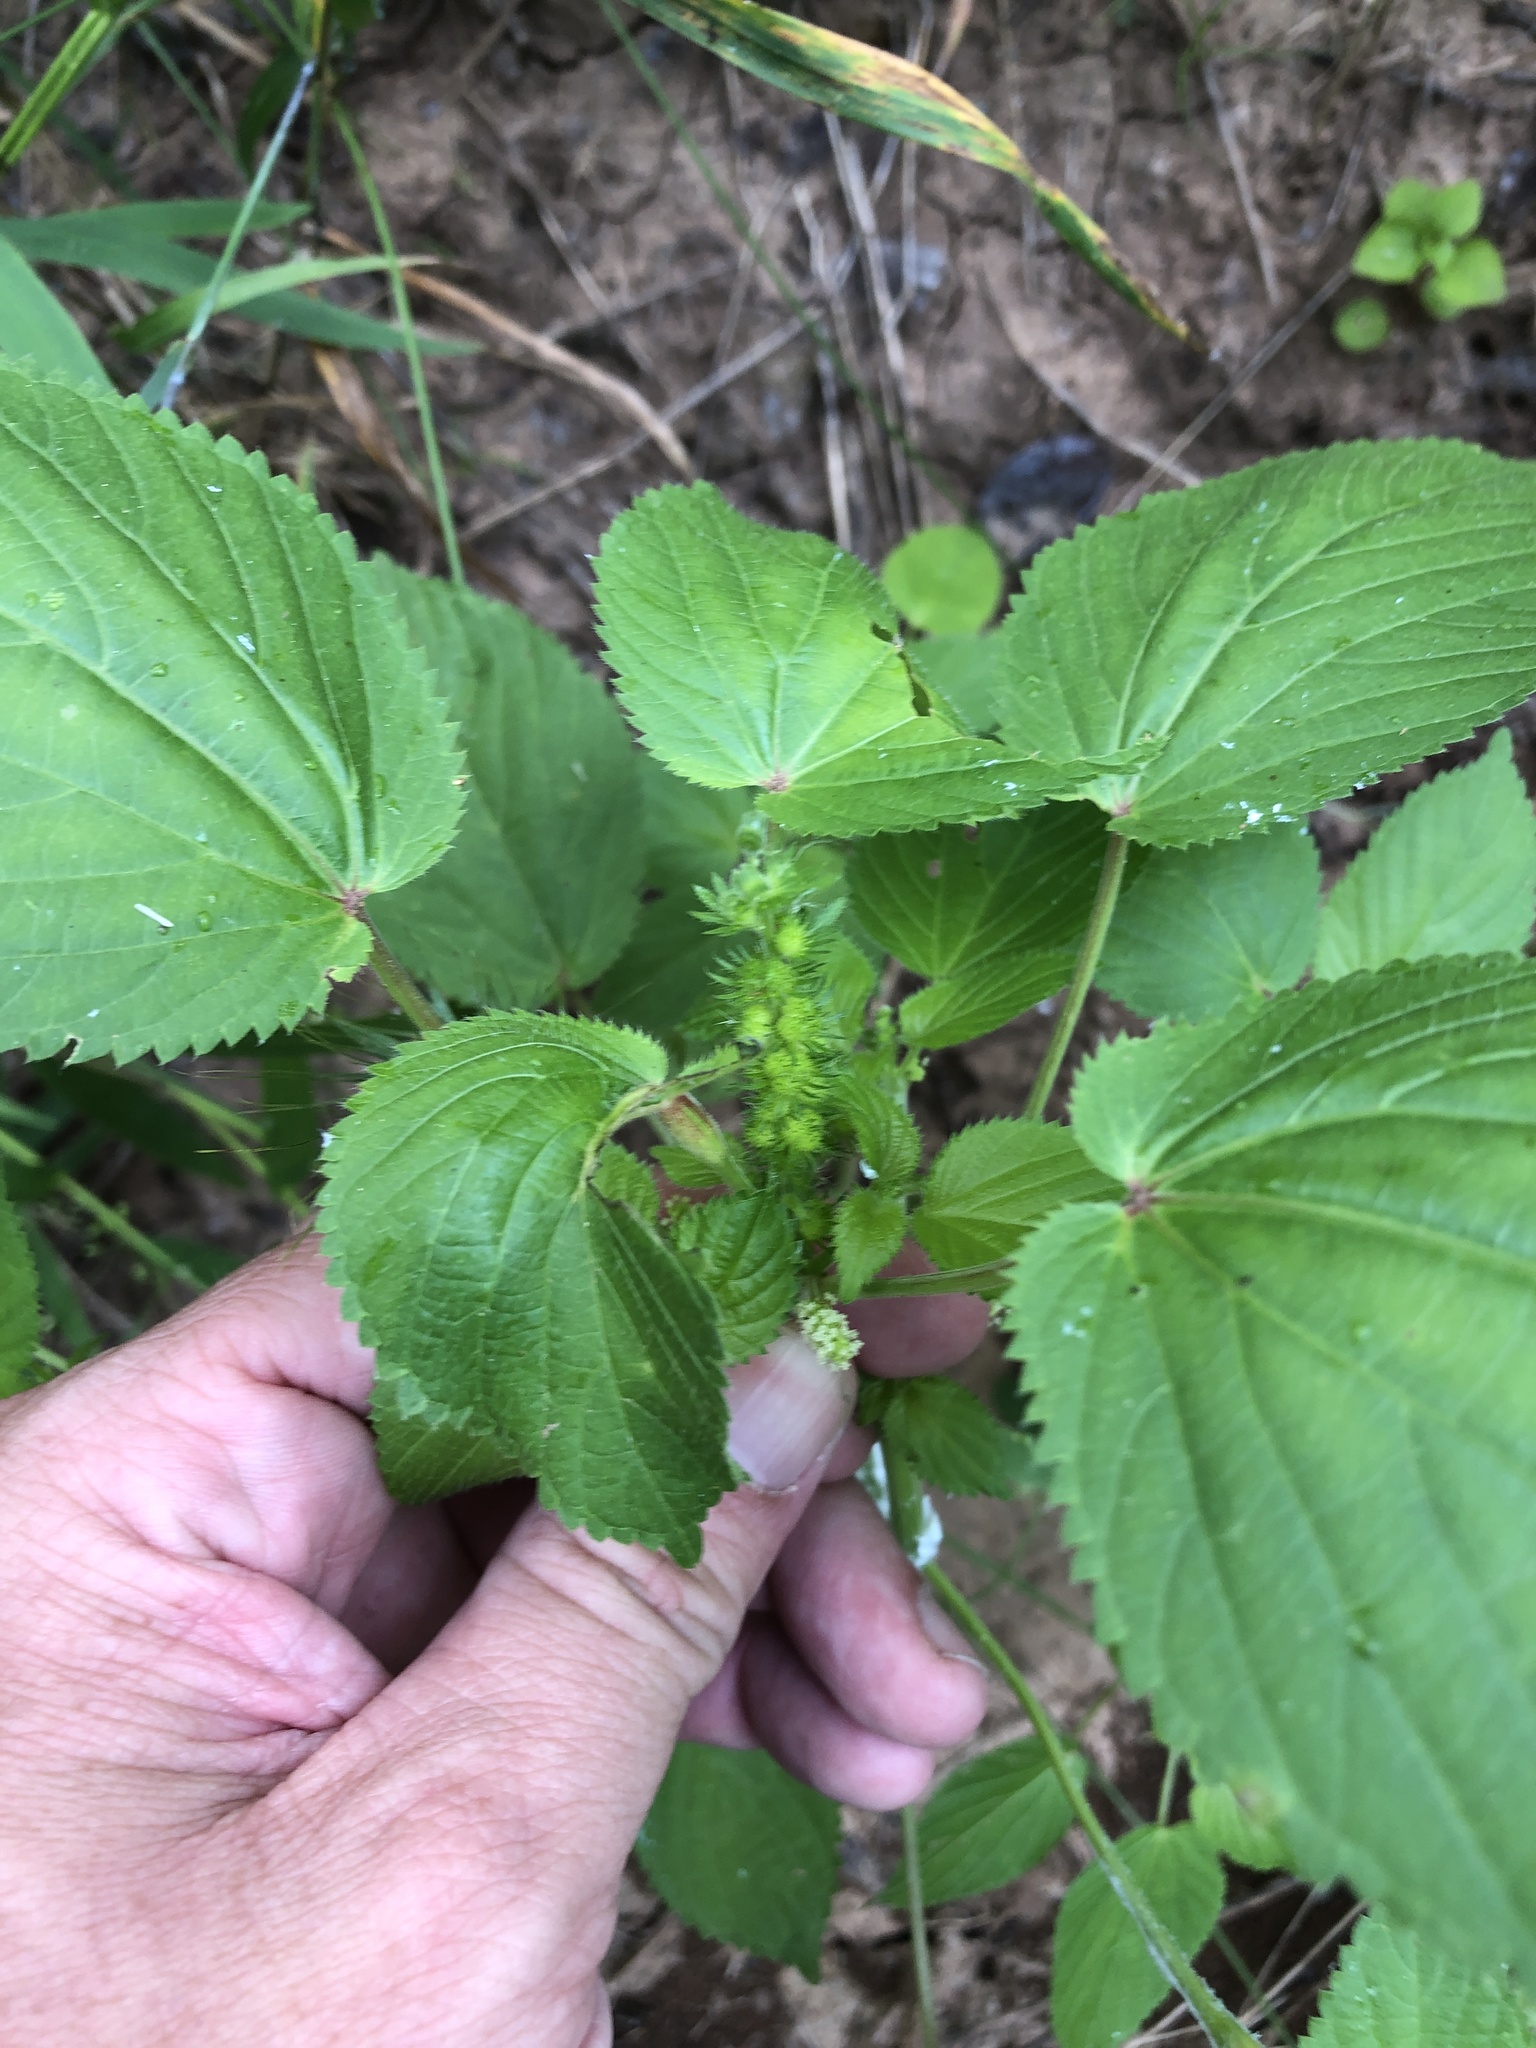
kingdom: Plantae
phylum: Tracheophyta
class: Magnoliopsida
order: Malpighiales
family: Euphorbiaceae
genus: Acalypha
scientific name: Acalypha ostryifolia
